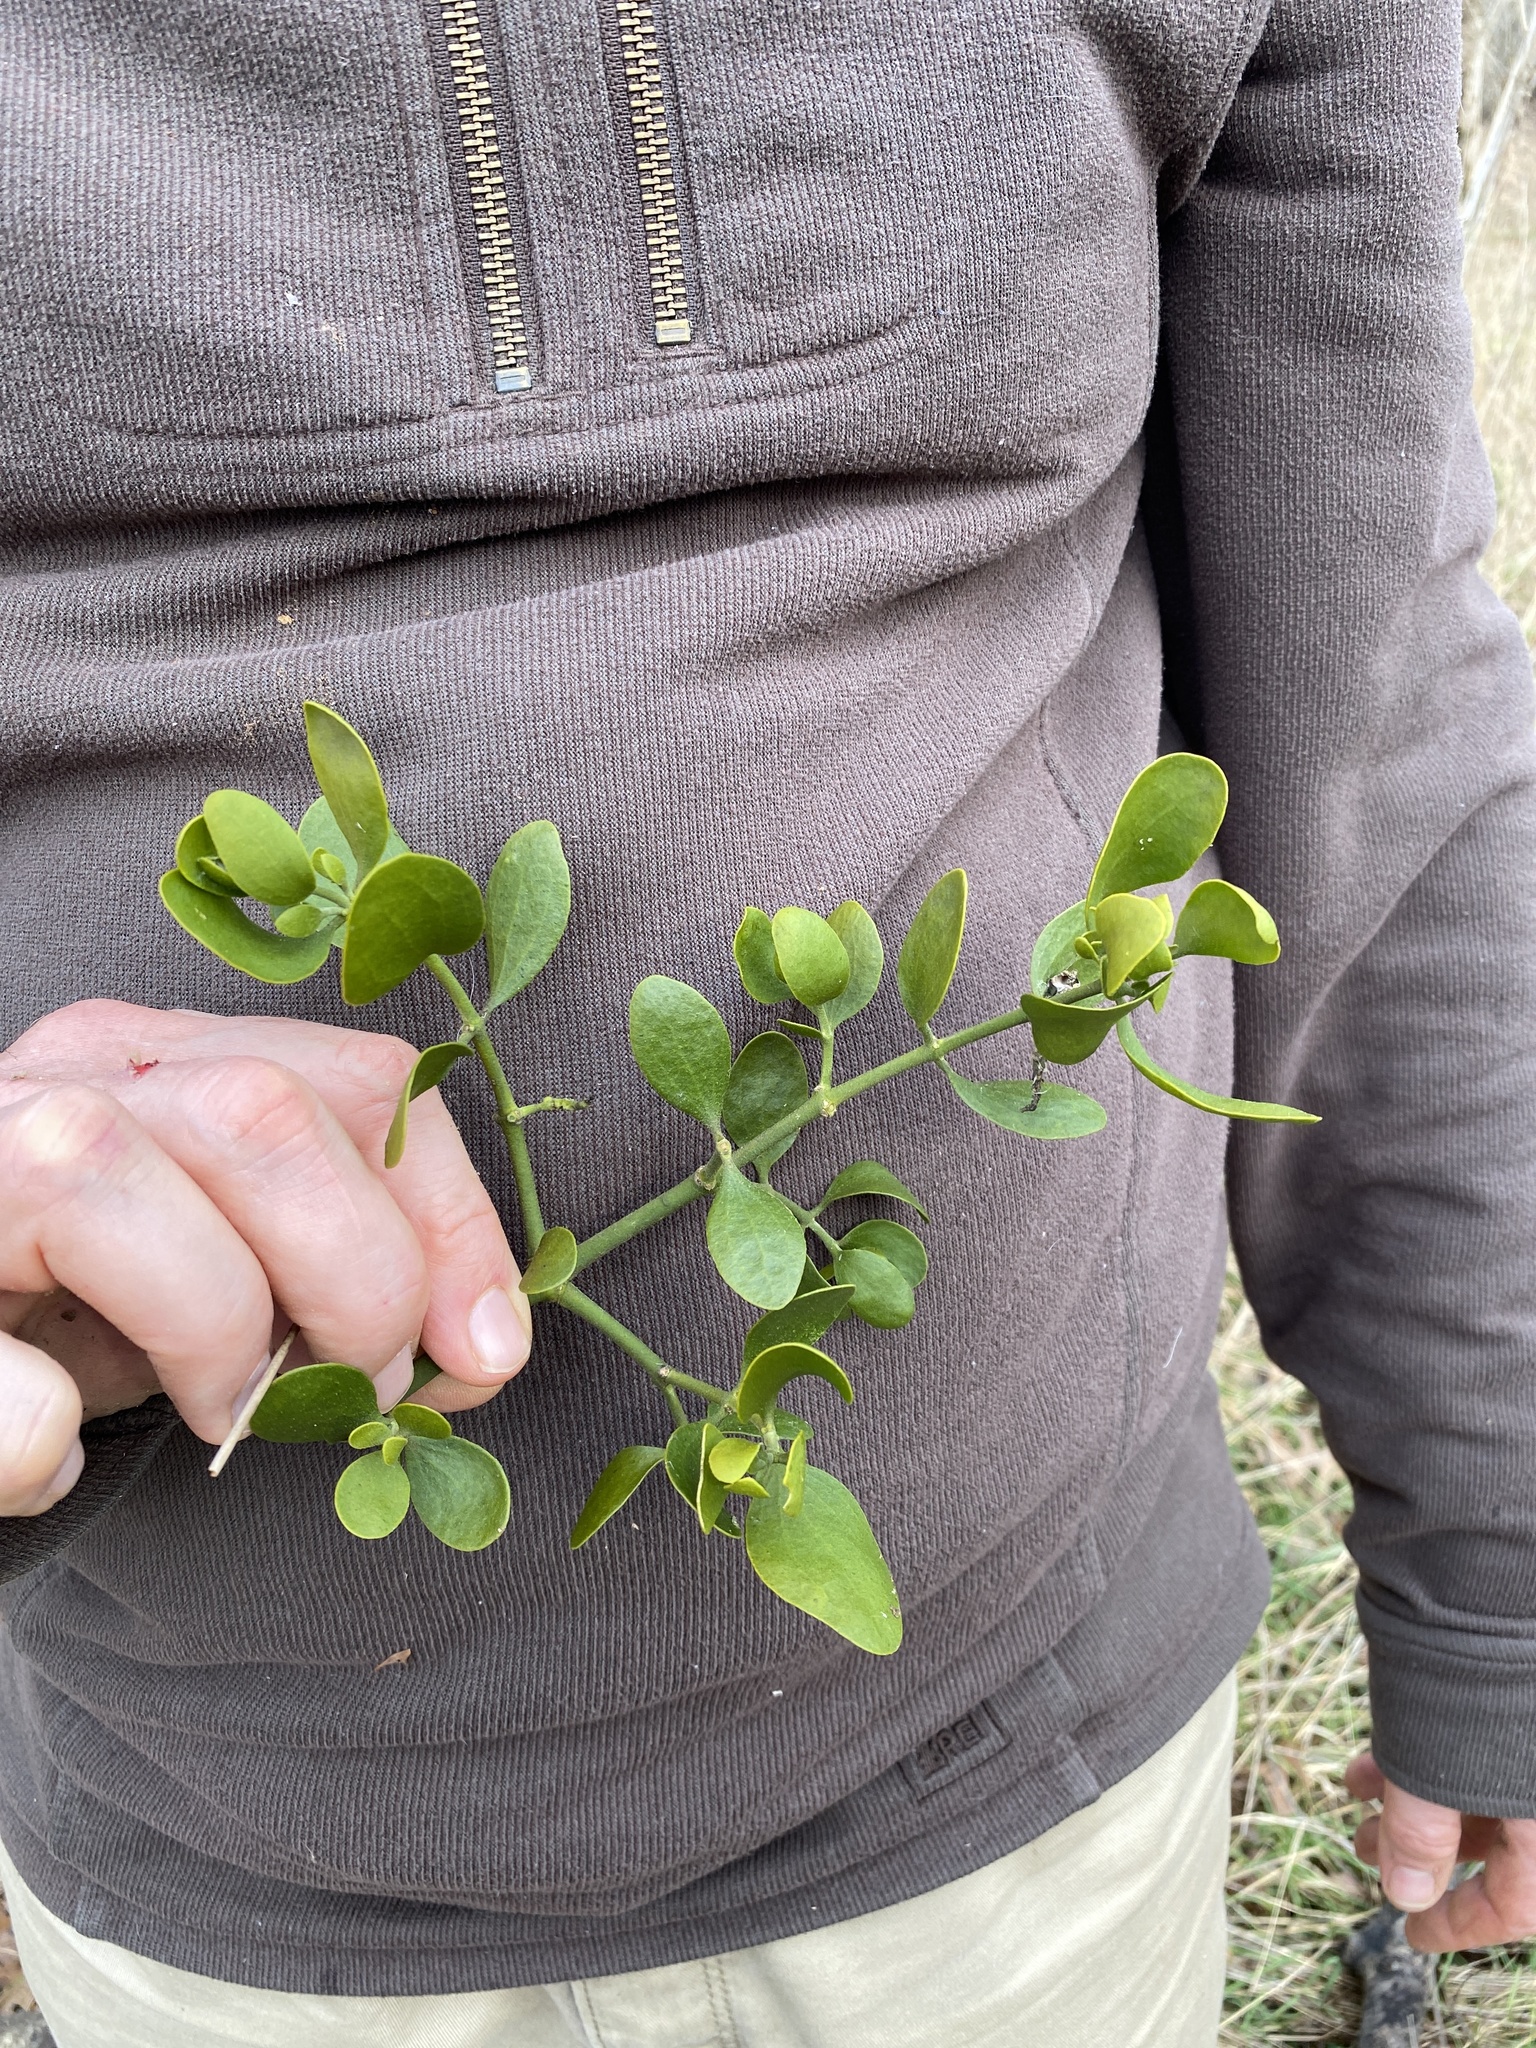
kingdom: Plantae
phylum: Tracheophyta
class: Magnoliopsida
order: Santalales
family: Viscaceae
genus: Phoradendron
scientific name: Phoradendron leucarpum
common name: Pacific mistletoe
